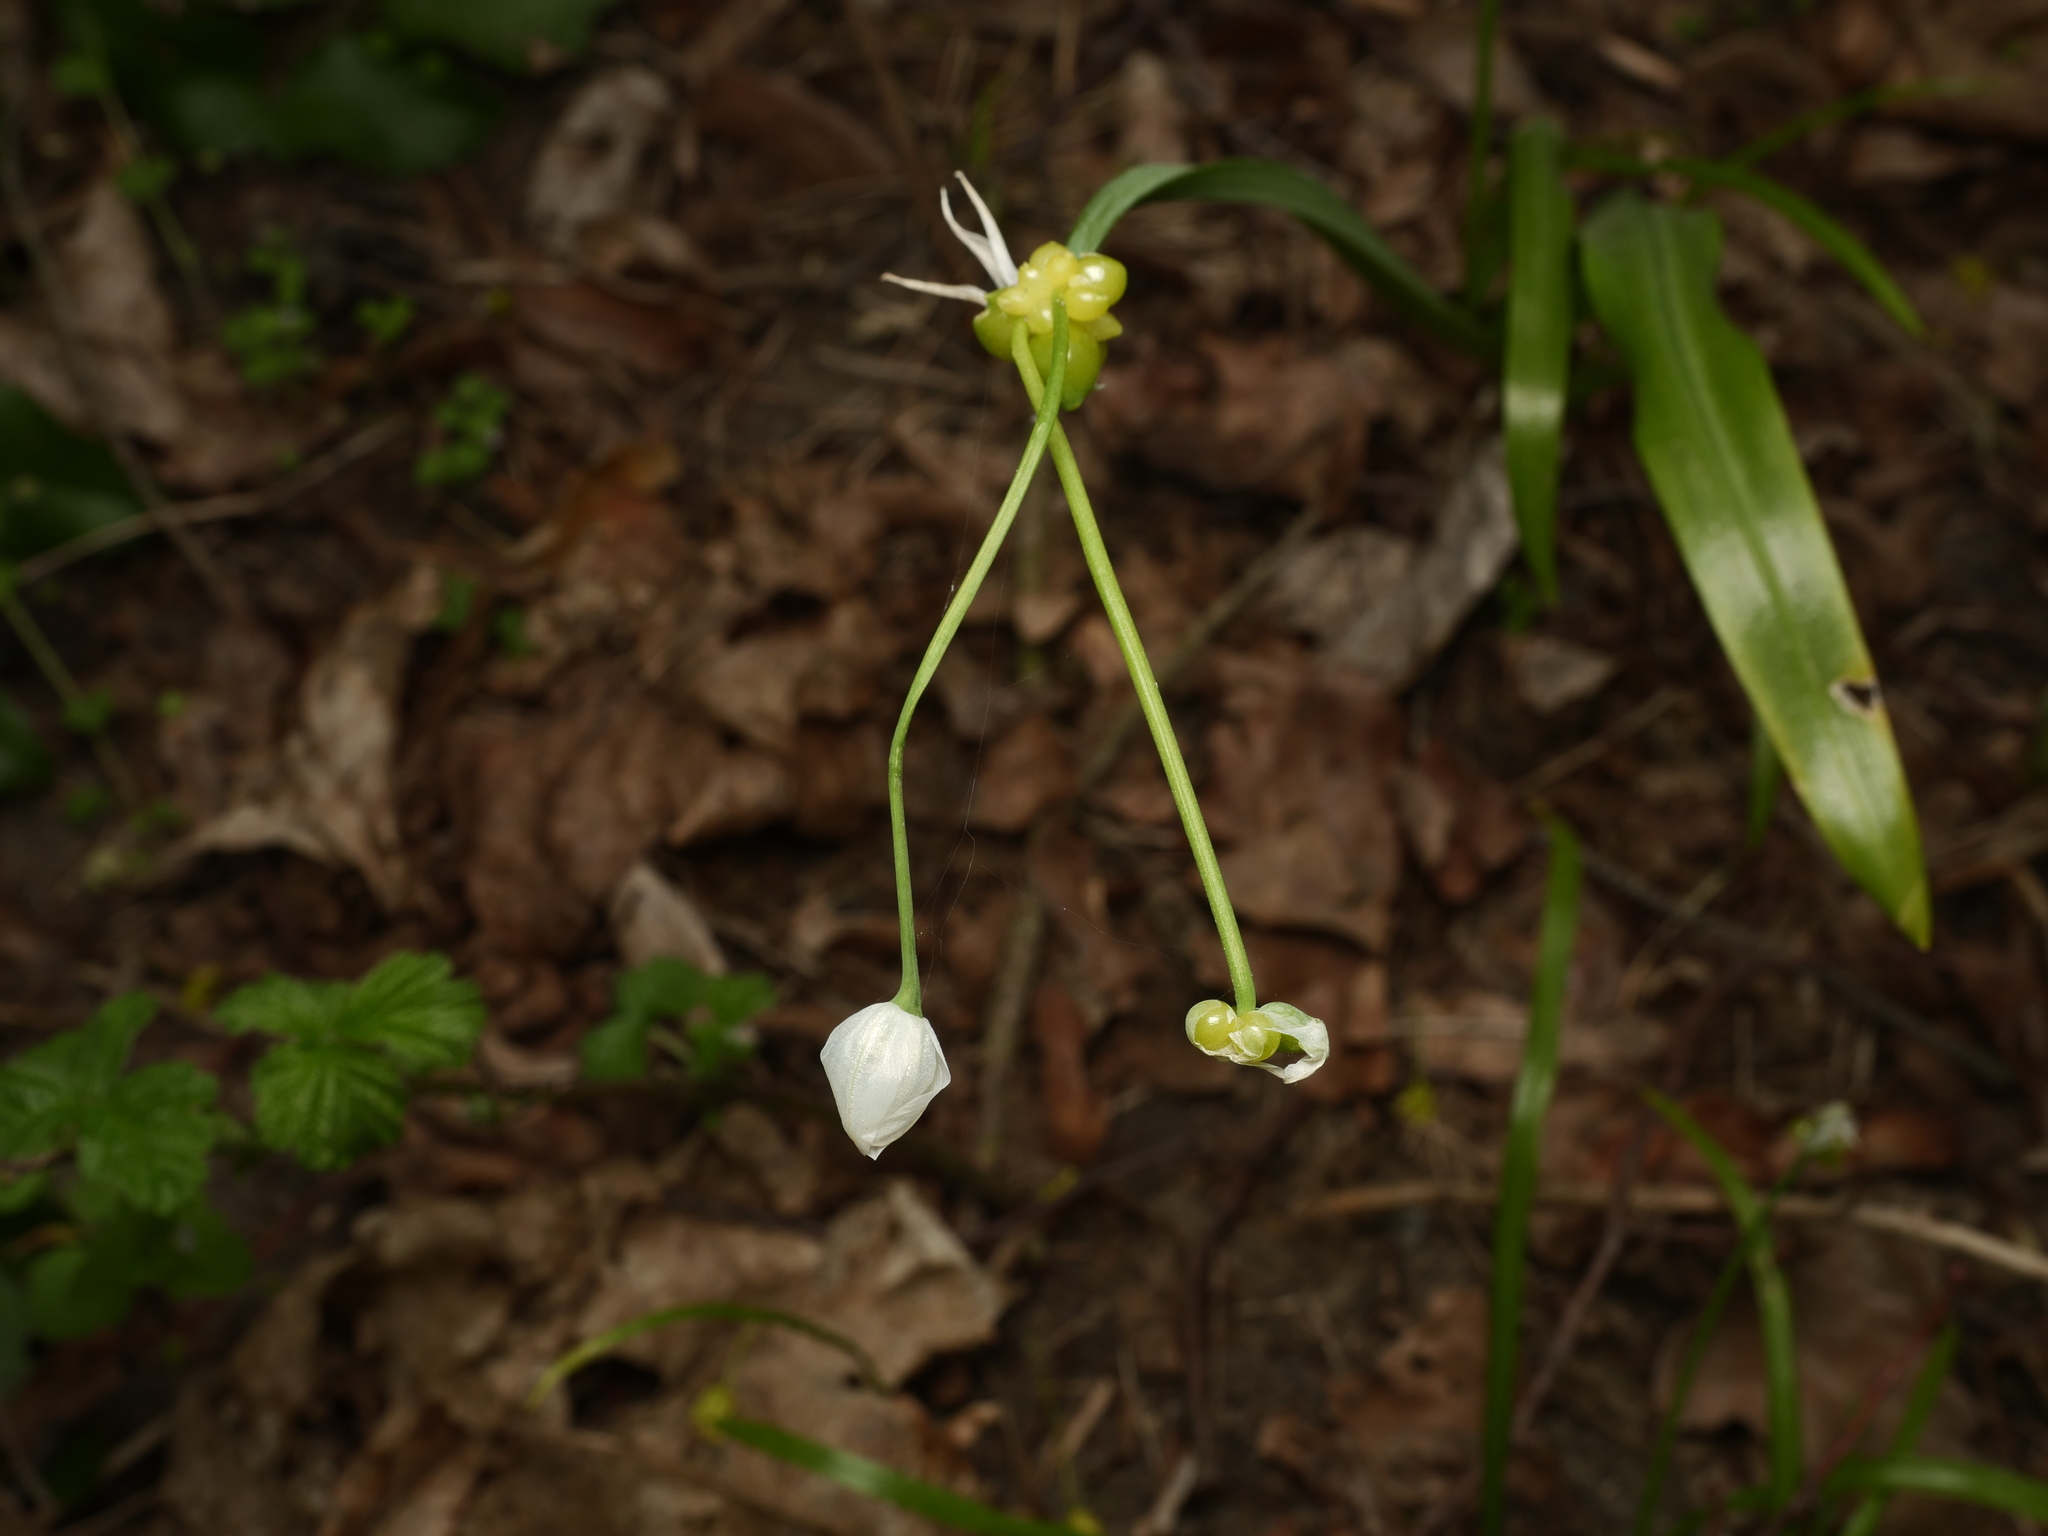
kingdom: Plantae
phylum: Tracheophyta
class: Liliopsida
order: Asparagales
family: Amaryllidaceae
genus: Allium
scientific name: Allium paradoxum
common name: Few-flowered garlic
